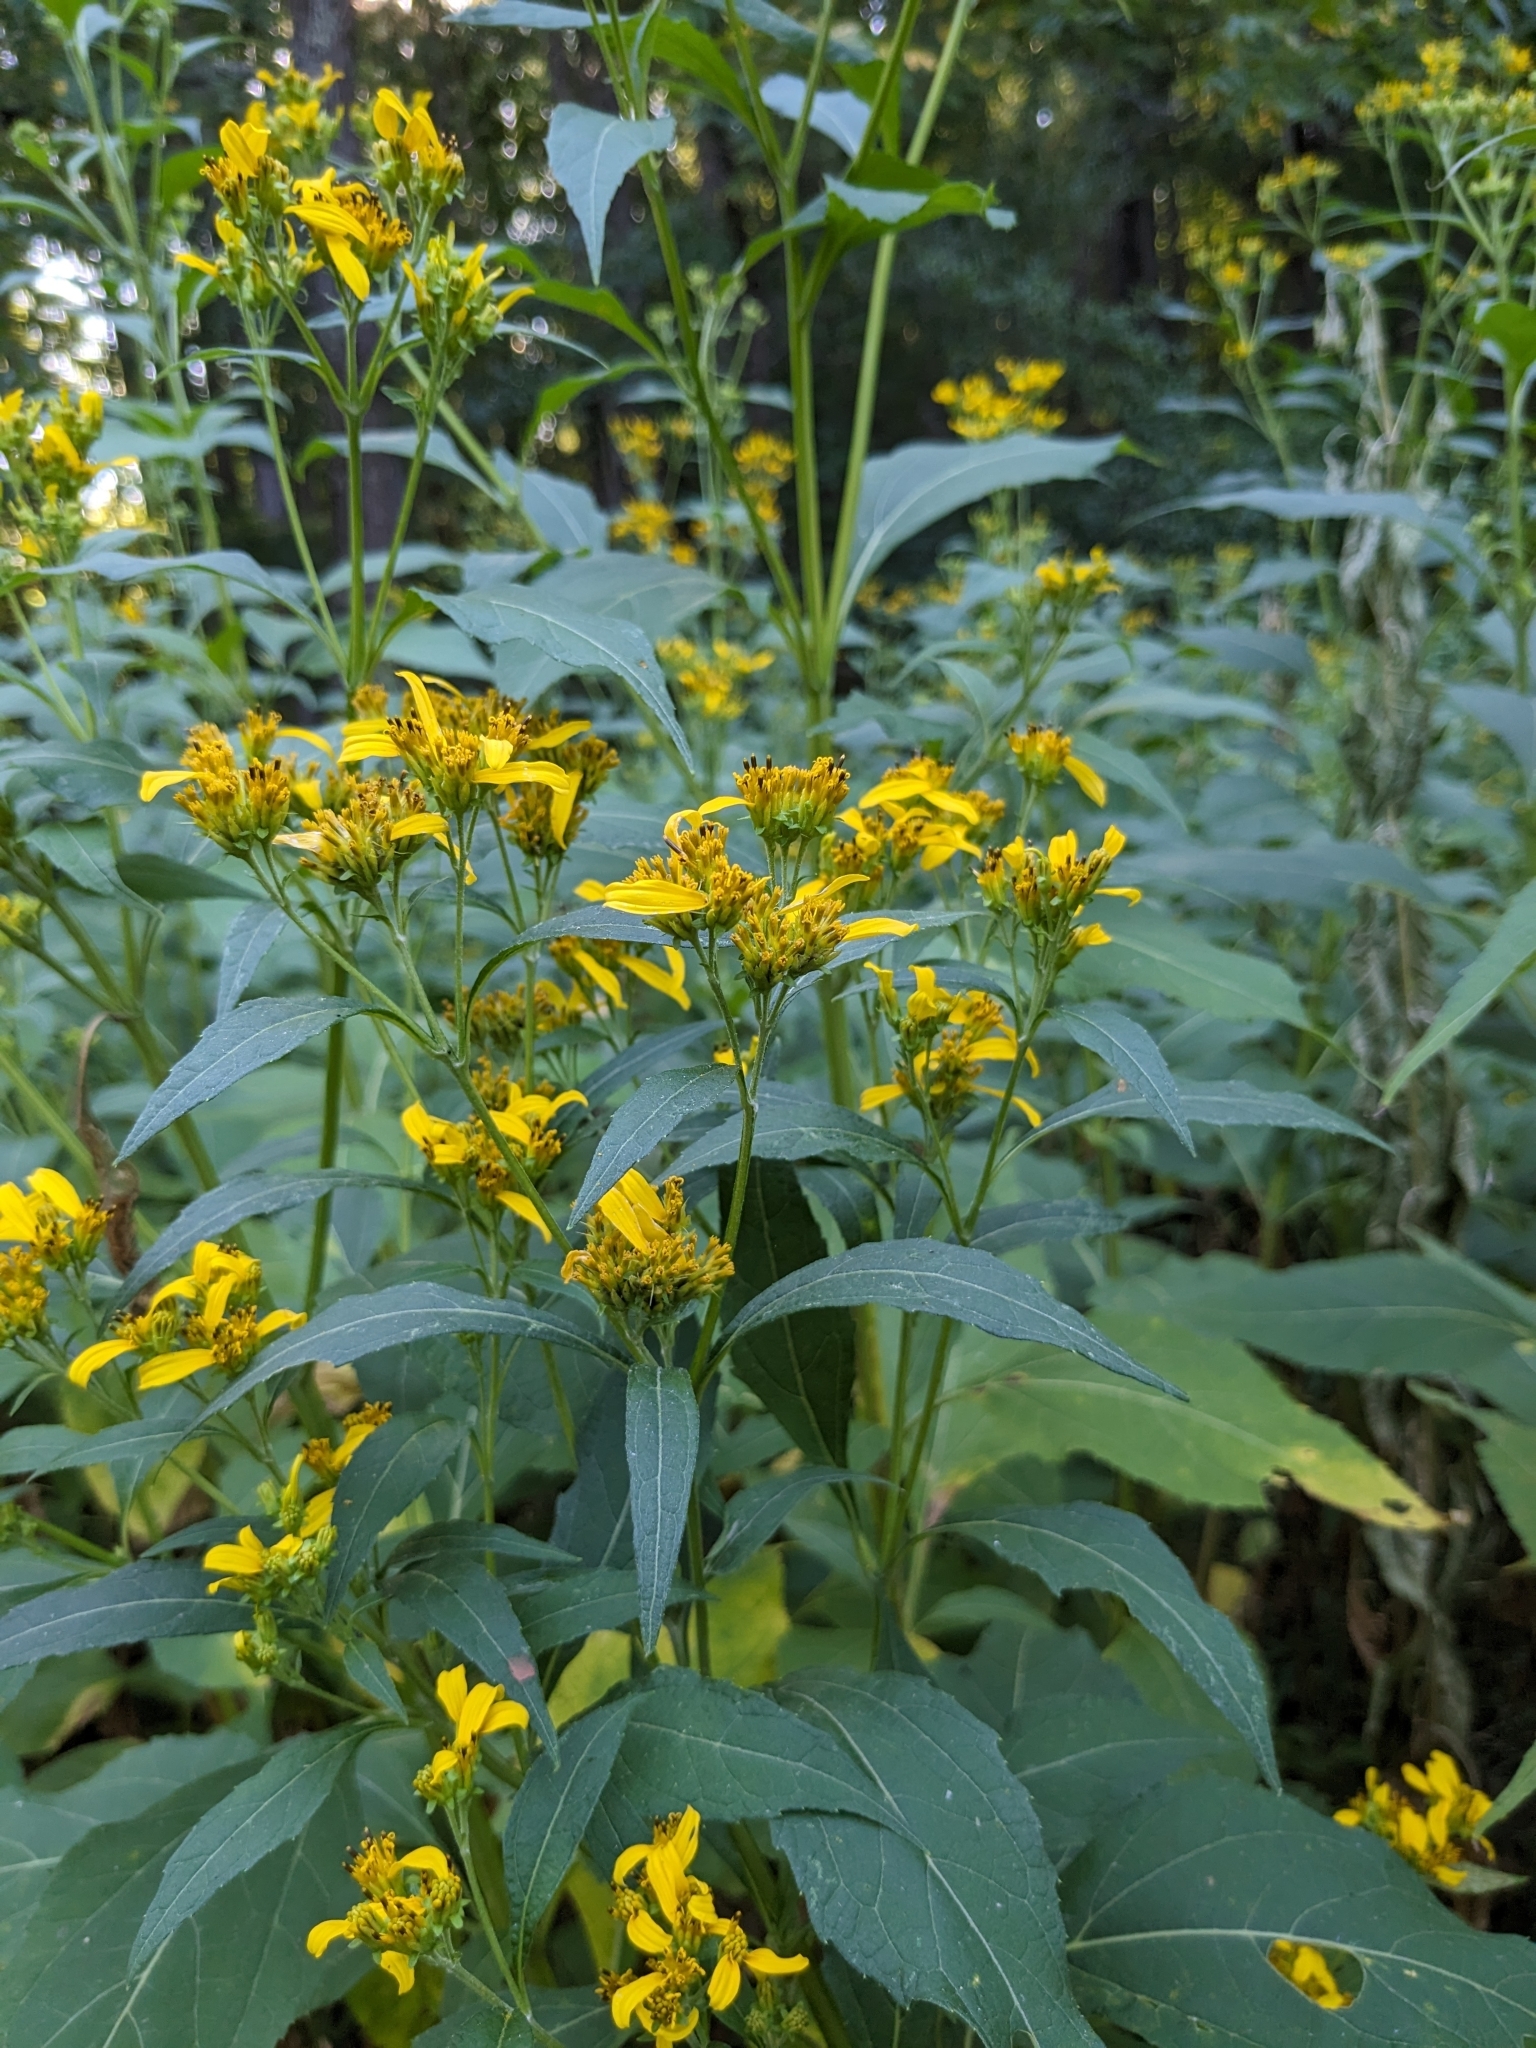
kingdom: Plantae
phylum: Tracheophyta
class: Magnoliopsida
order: Asterales
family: Asteraceae
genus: Verbesina
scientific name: Verbesina occidentalis
